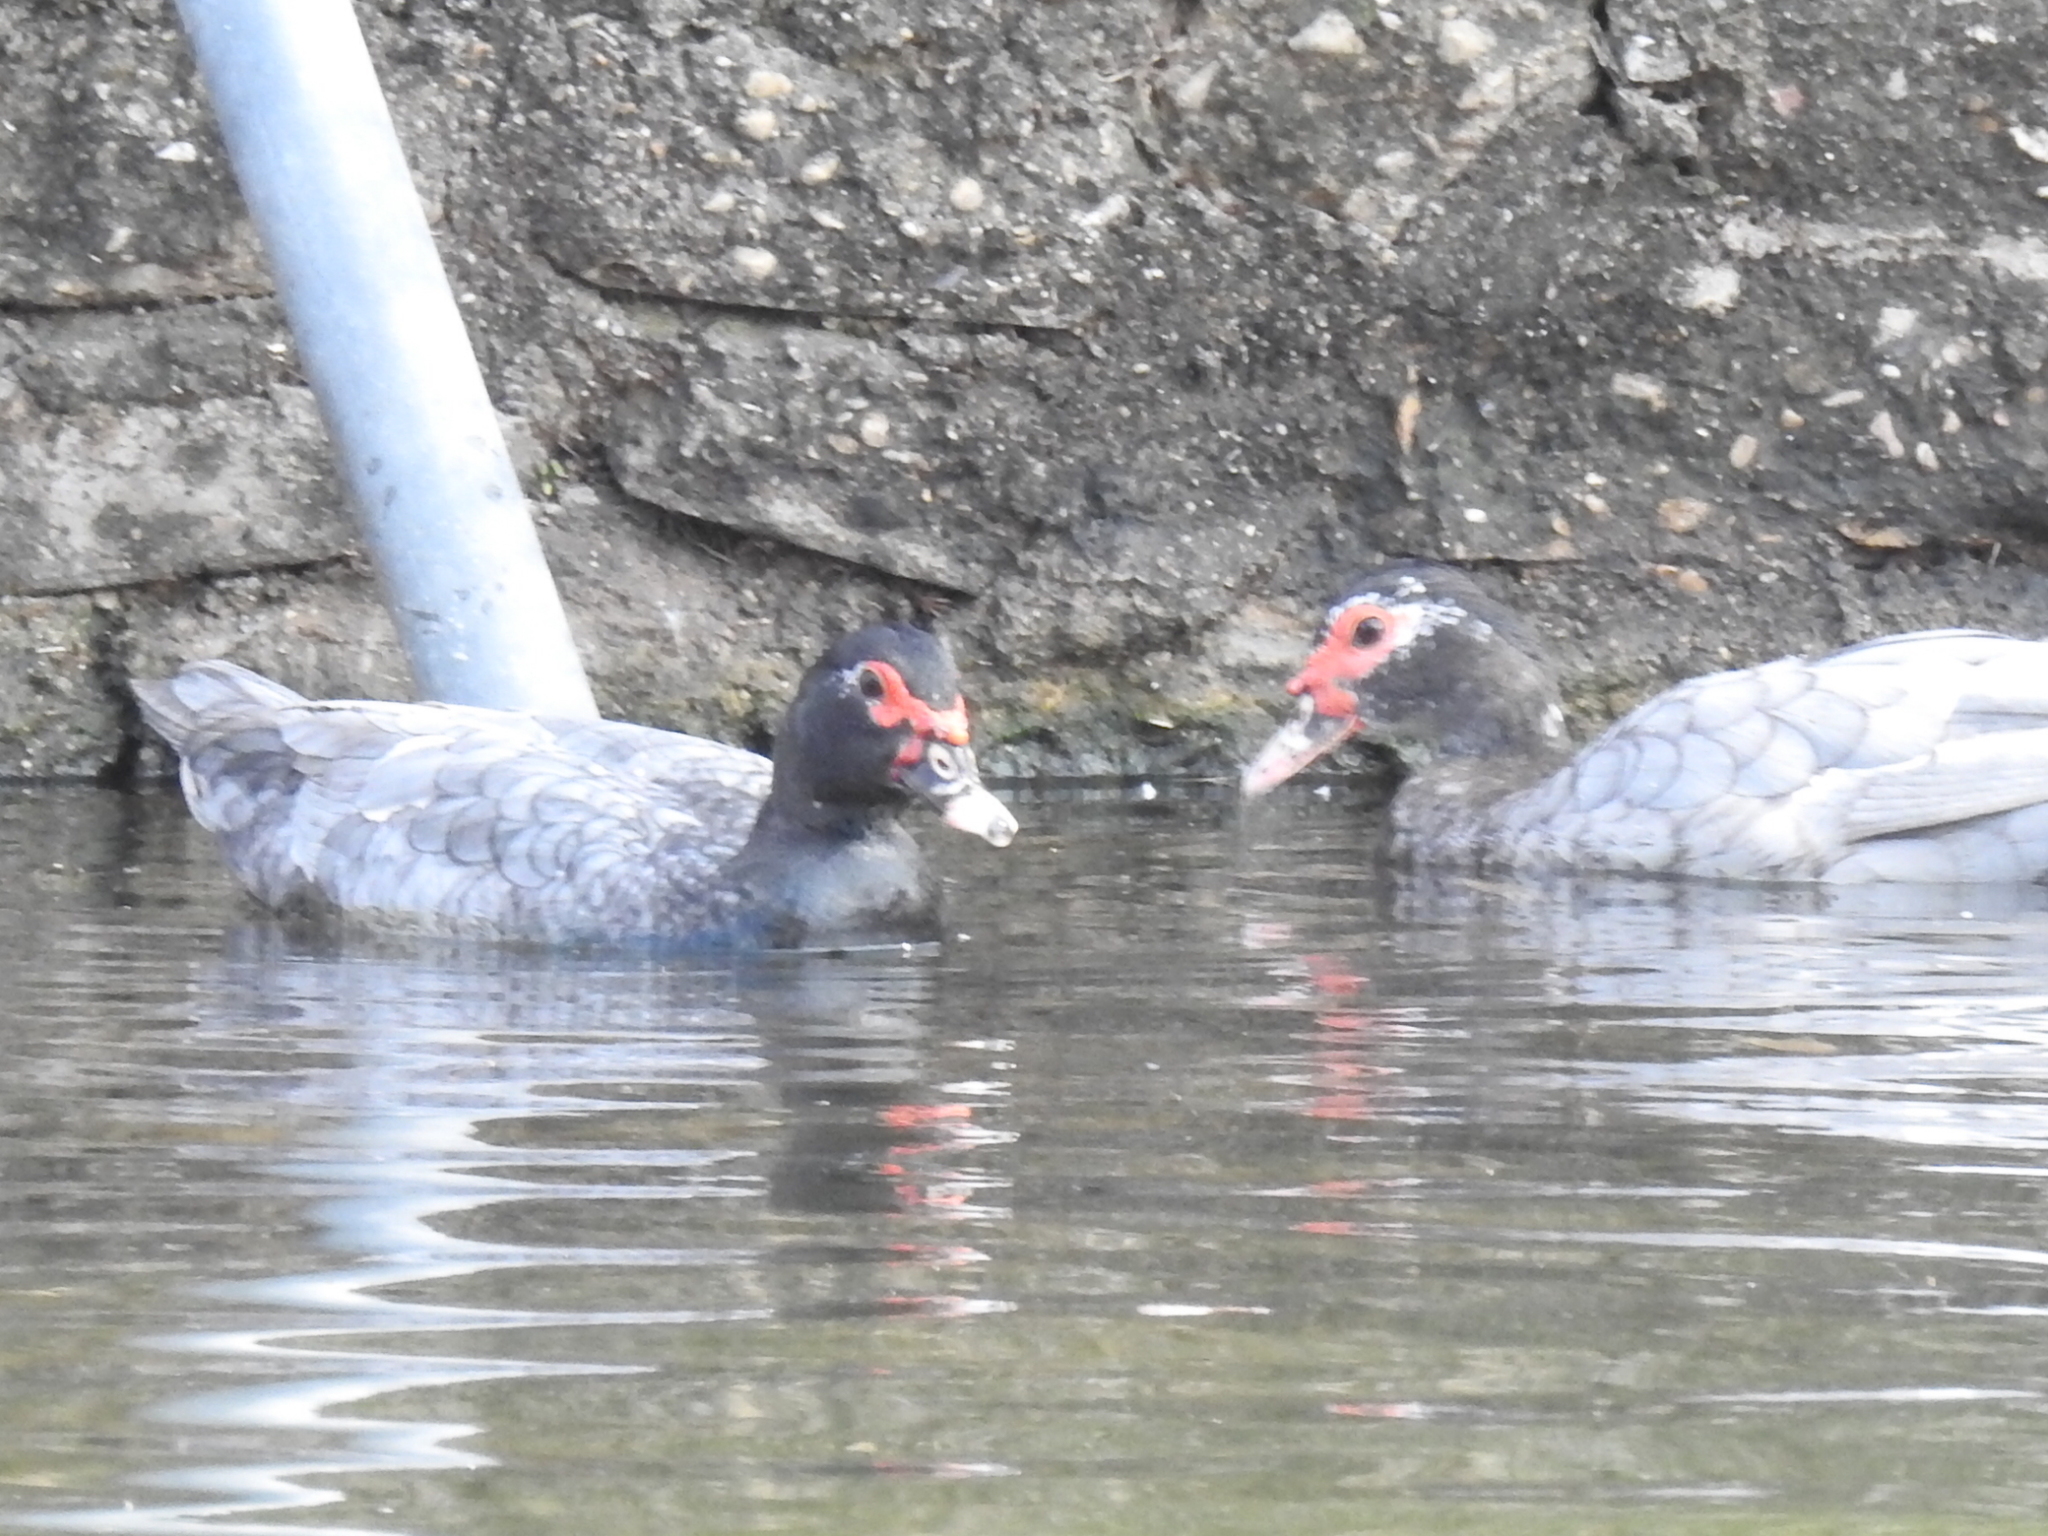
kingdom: Animalia
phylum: Chordata
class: Aves
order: Anseriformes
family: Anatidae
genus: Cairina
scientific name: Cairina moschata
